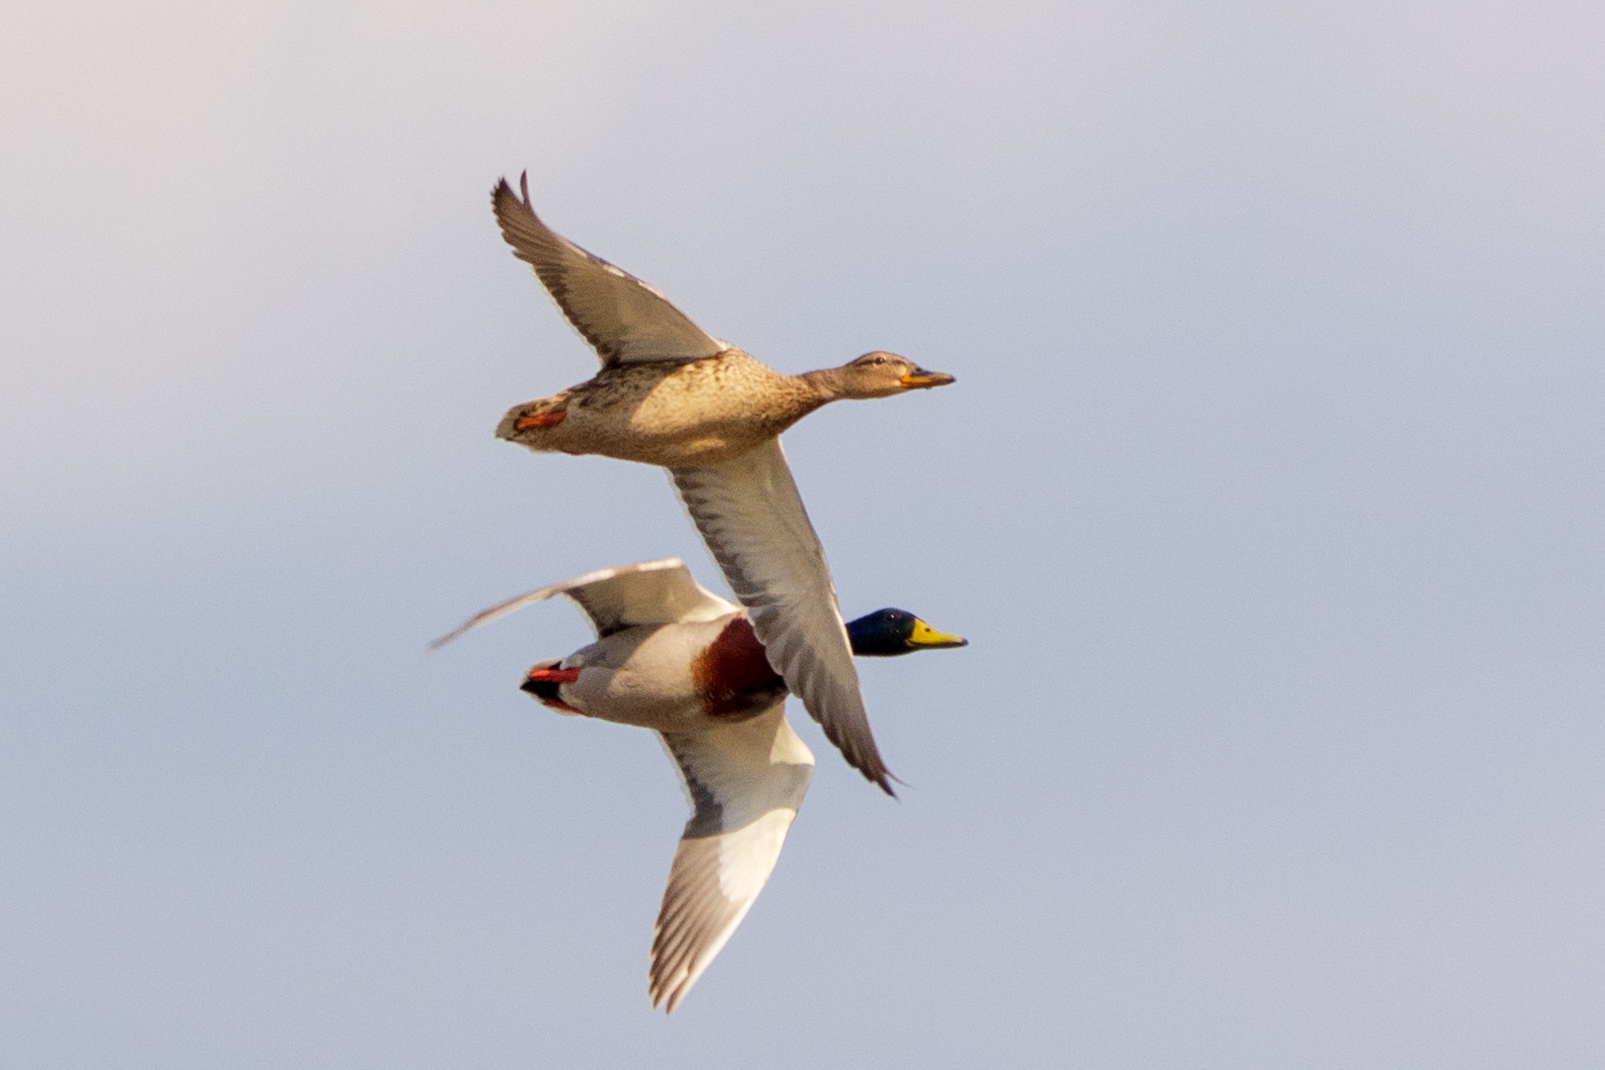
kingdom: Animalia
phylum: Chordata
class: Aves
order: Anseriformes
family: Anatidae
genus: Anas
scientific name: Anas platyrhynchos
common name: Mallard
